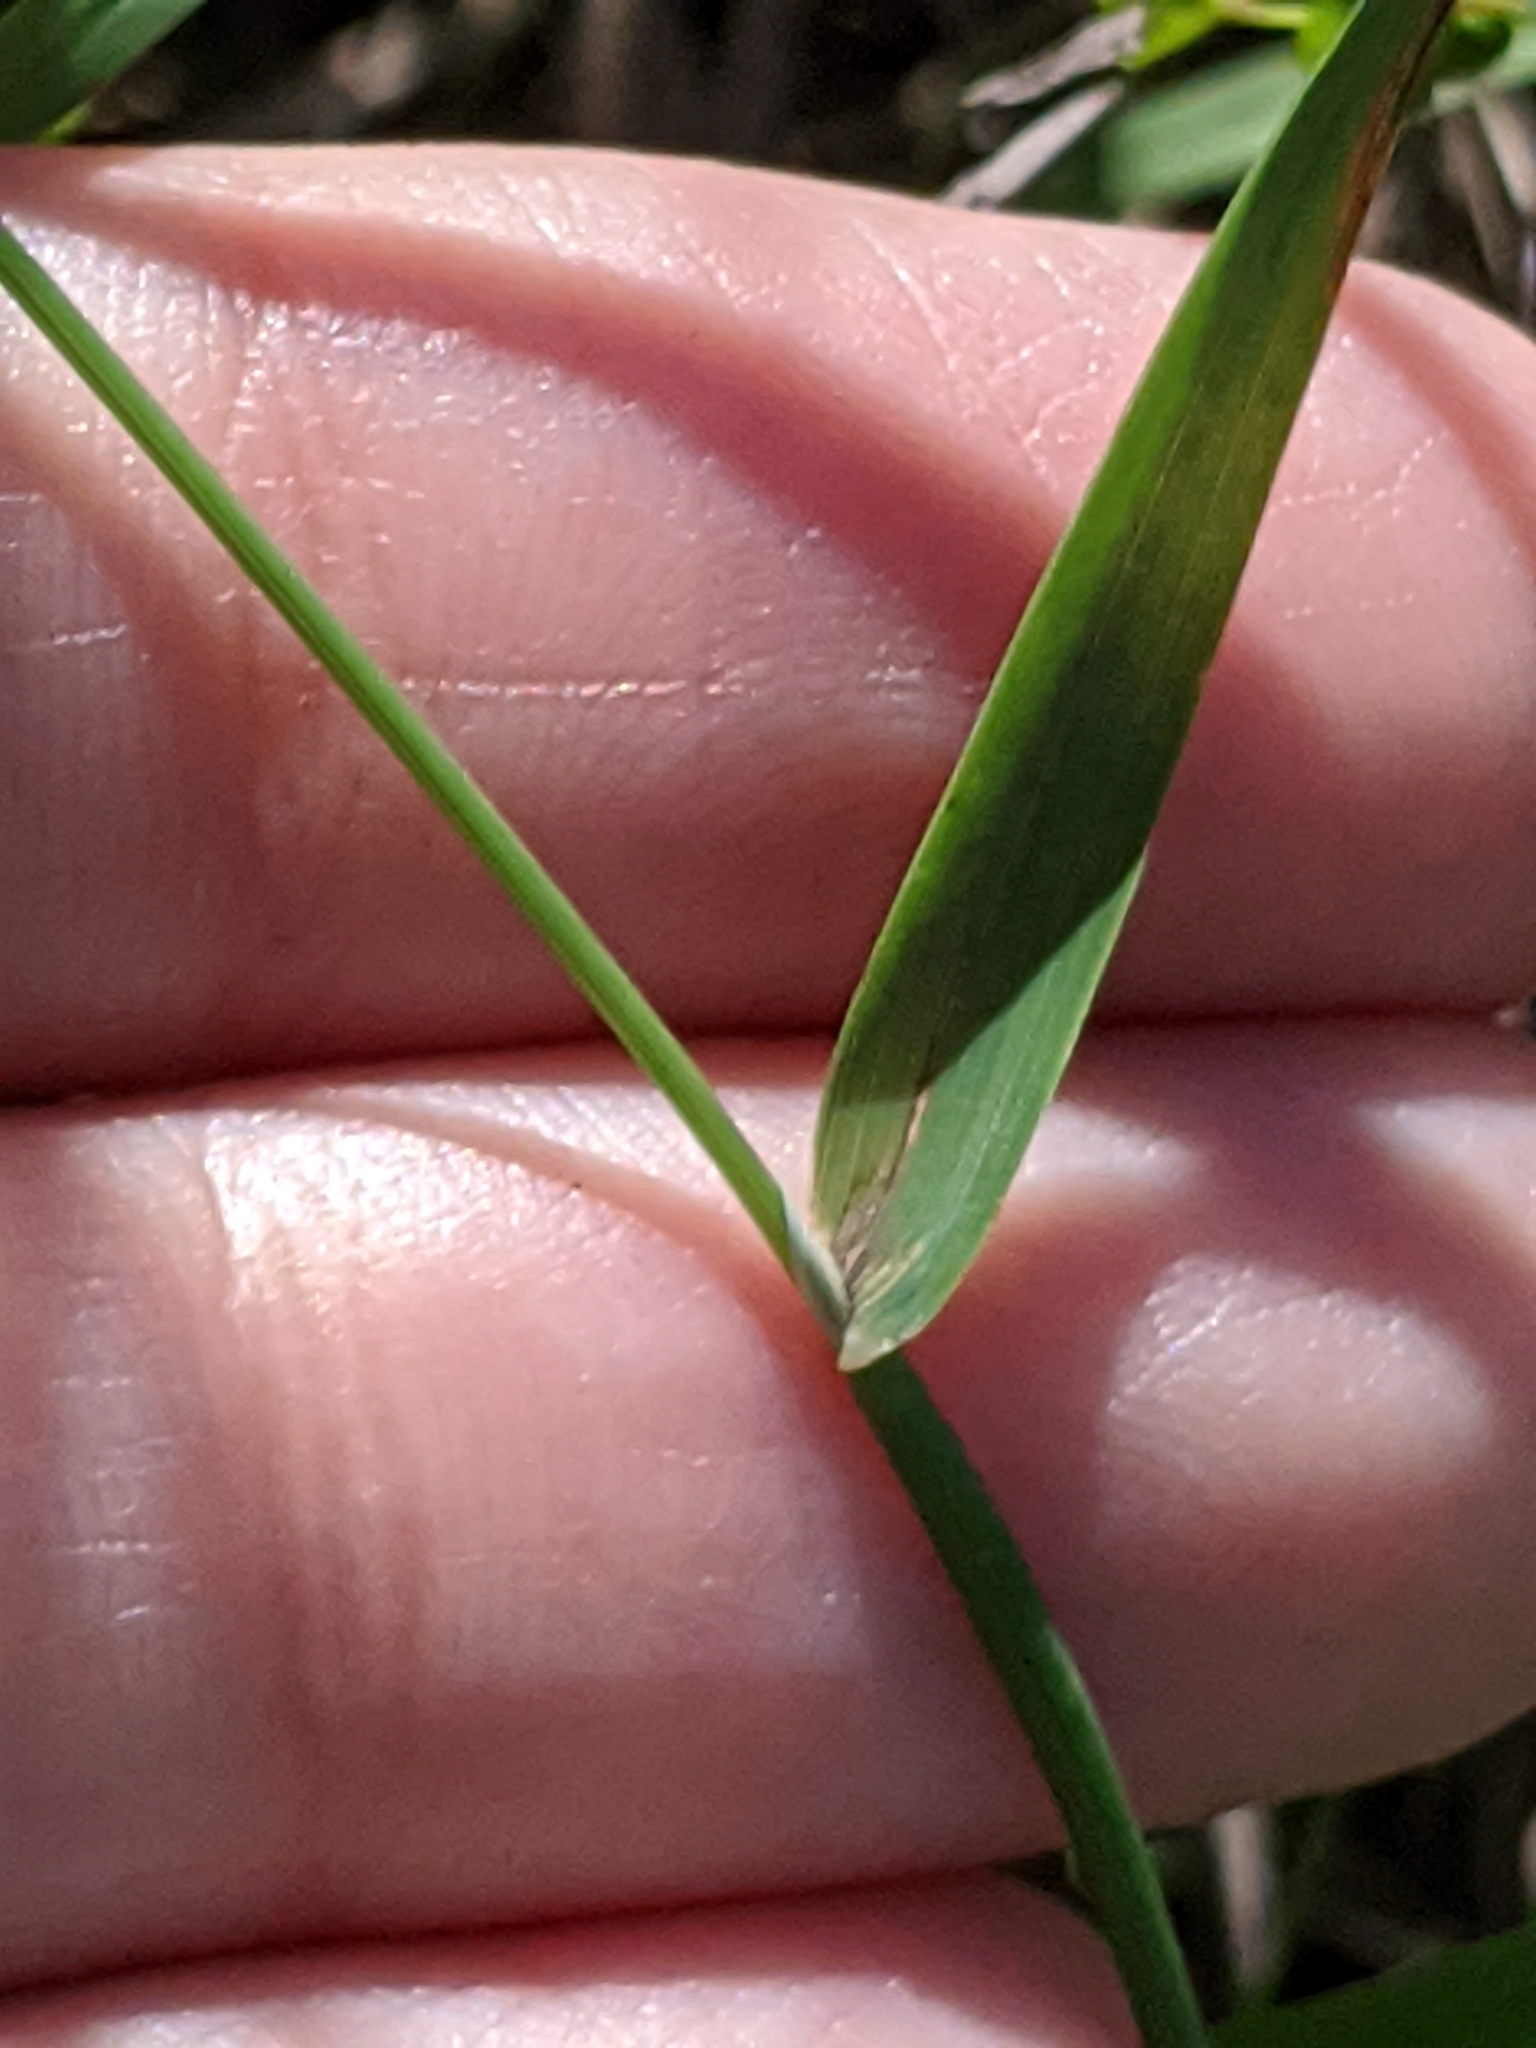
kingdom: Plantae
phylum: Tracheophyta
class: Liliopsida
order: Poales
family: Poaceae
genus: Phalaris
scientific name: Phalaris caroliniana
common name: May grass
